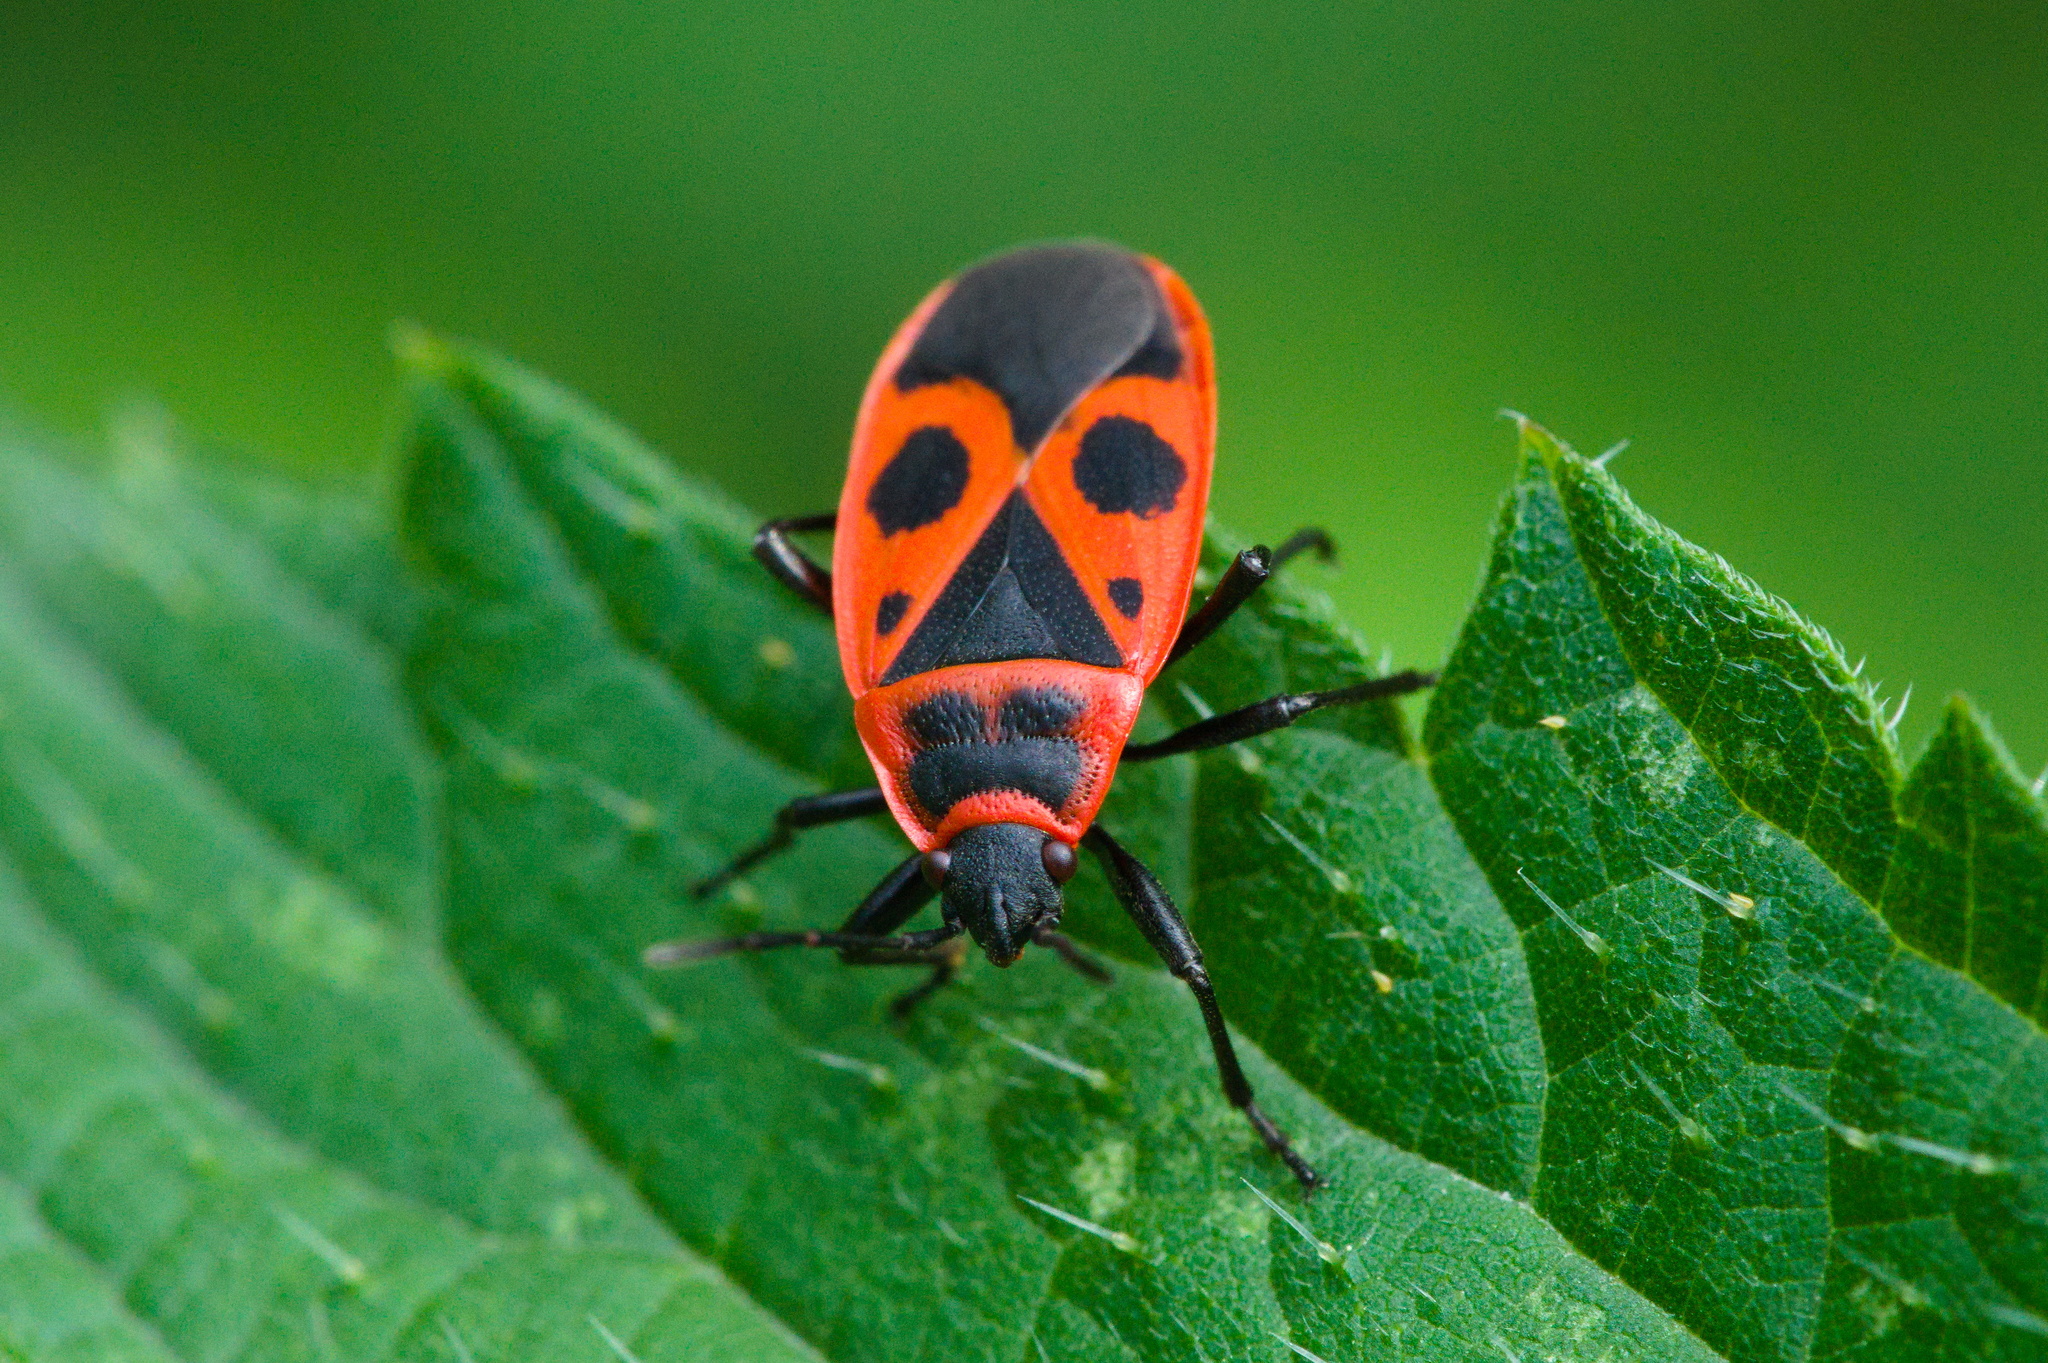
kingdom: Animalia
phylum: Arthropoda
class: Insecta
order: Hemiptera
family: Pyrrhocoridae
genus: Pyrrhocoris
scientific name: Pyrrhocoris apterus
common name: Firebug
